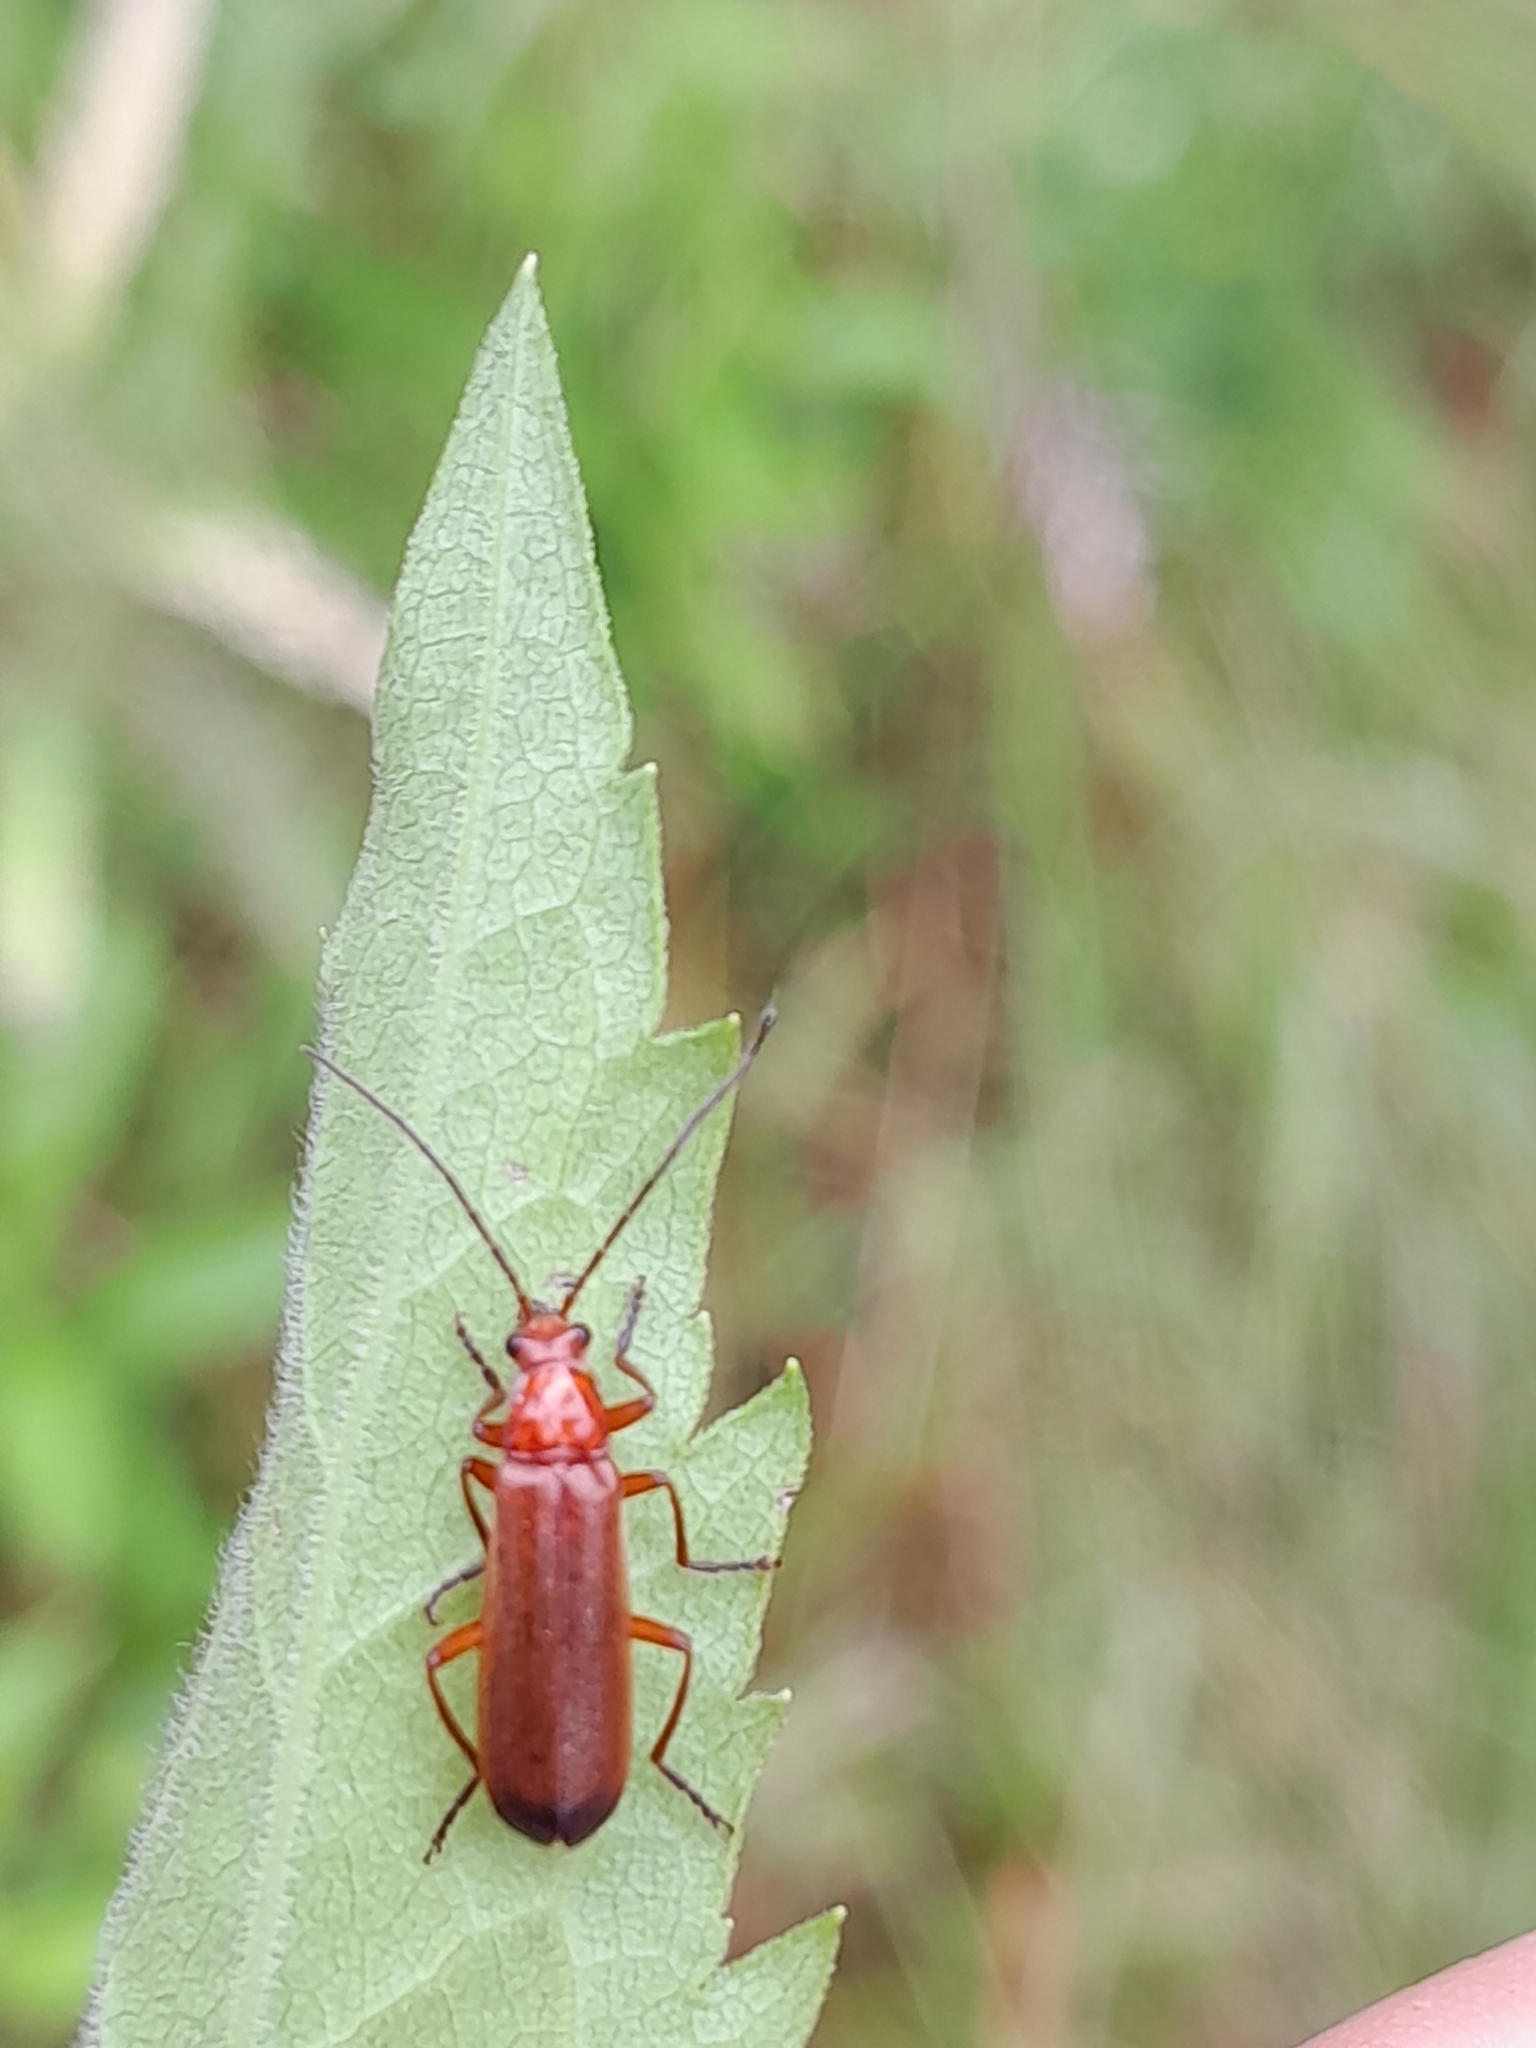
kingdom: Animalia
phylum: Arthropoda
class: Insecta
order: Coleoptera
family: Cantharidae
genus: Rhagonycha
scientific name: Rhagonycha fulva
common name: Common red soldier beetle
